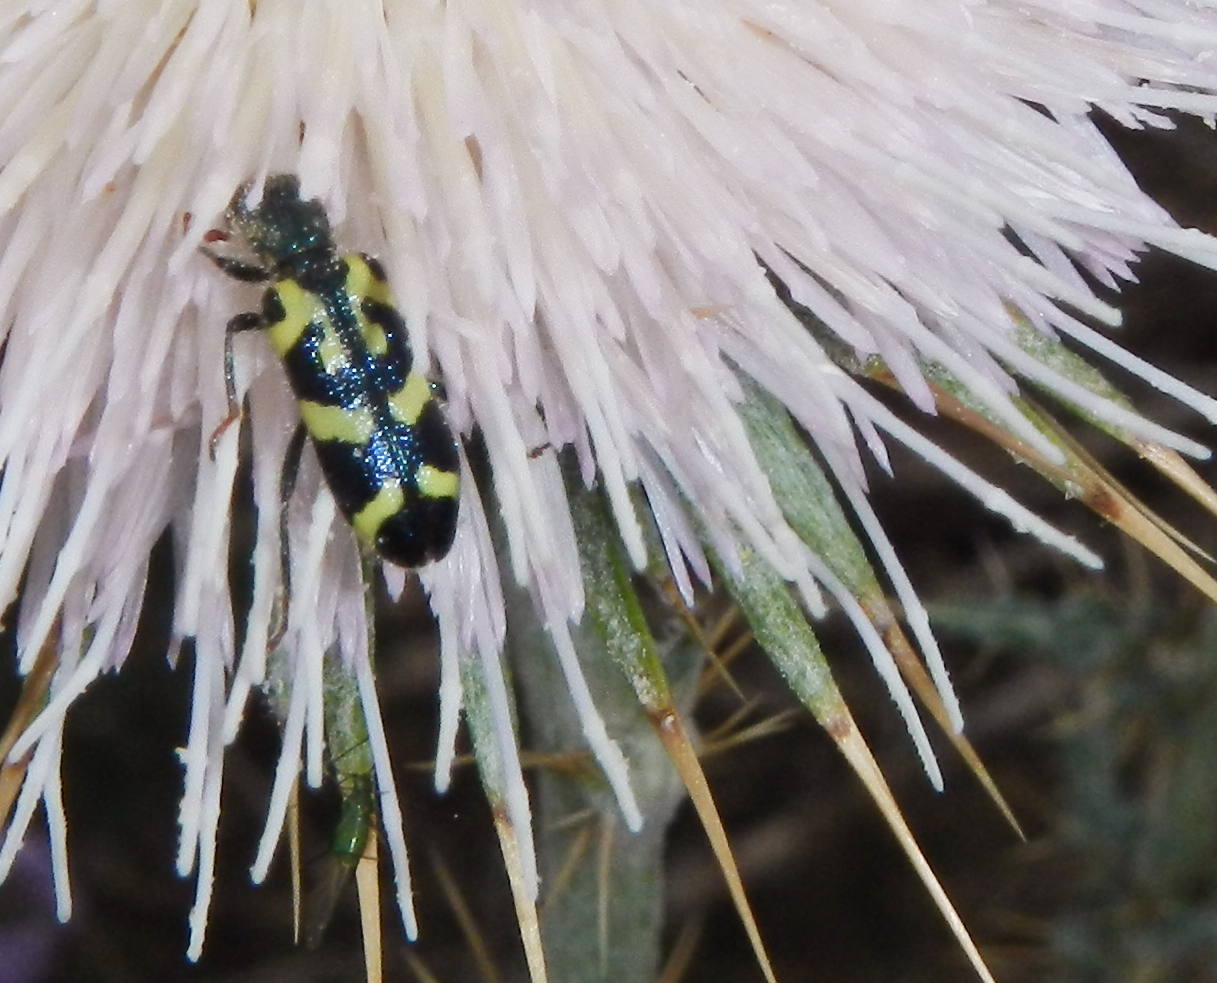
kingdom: Animalia
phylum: Arthropoda
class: Insecta
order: Coleoptera
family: Cleridae
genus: Trichodes
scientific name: Trichodes ornatus
